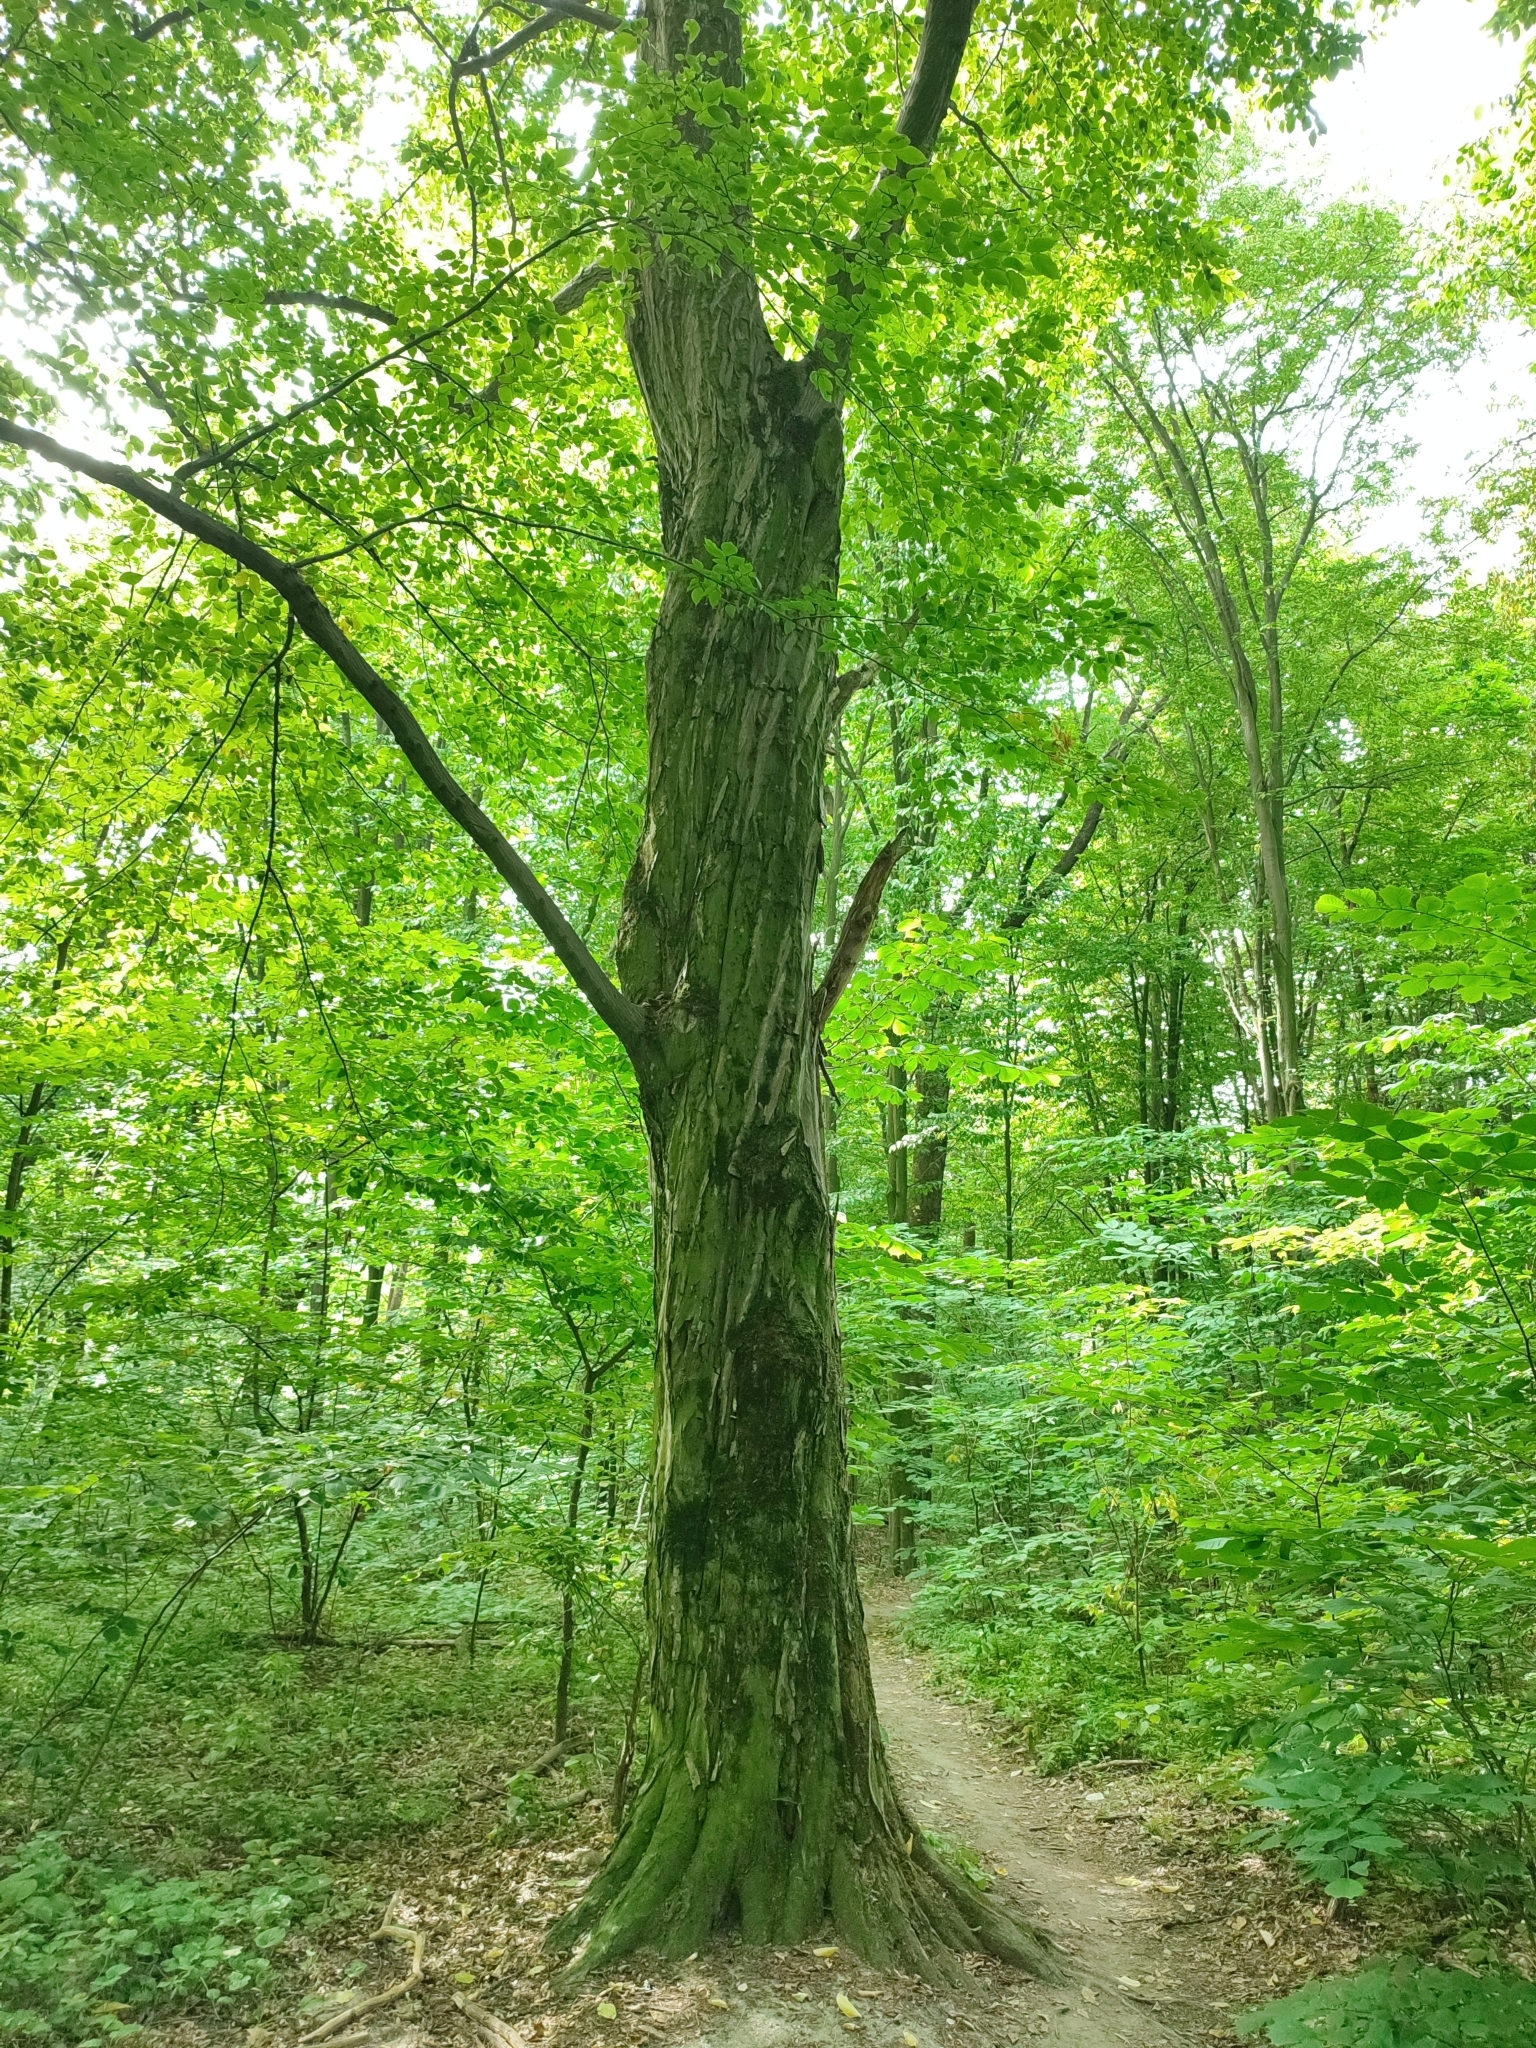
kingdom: Plantae
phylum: Tracheophyta
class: Magnoliopsida
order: Fagales
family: Betulaceae
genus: Carpinus
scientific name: Carpinus betulus
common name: Hornbeam
